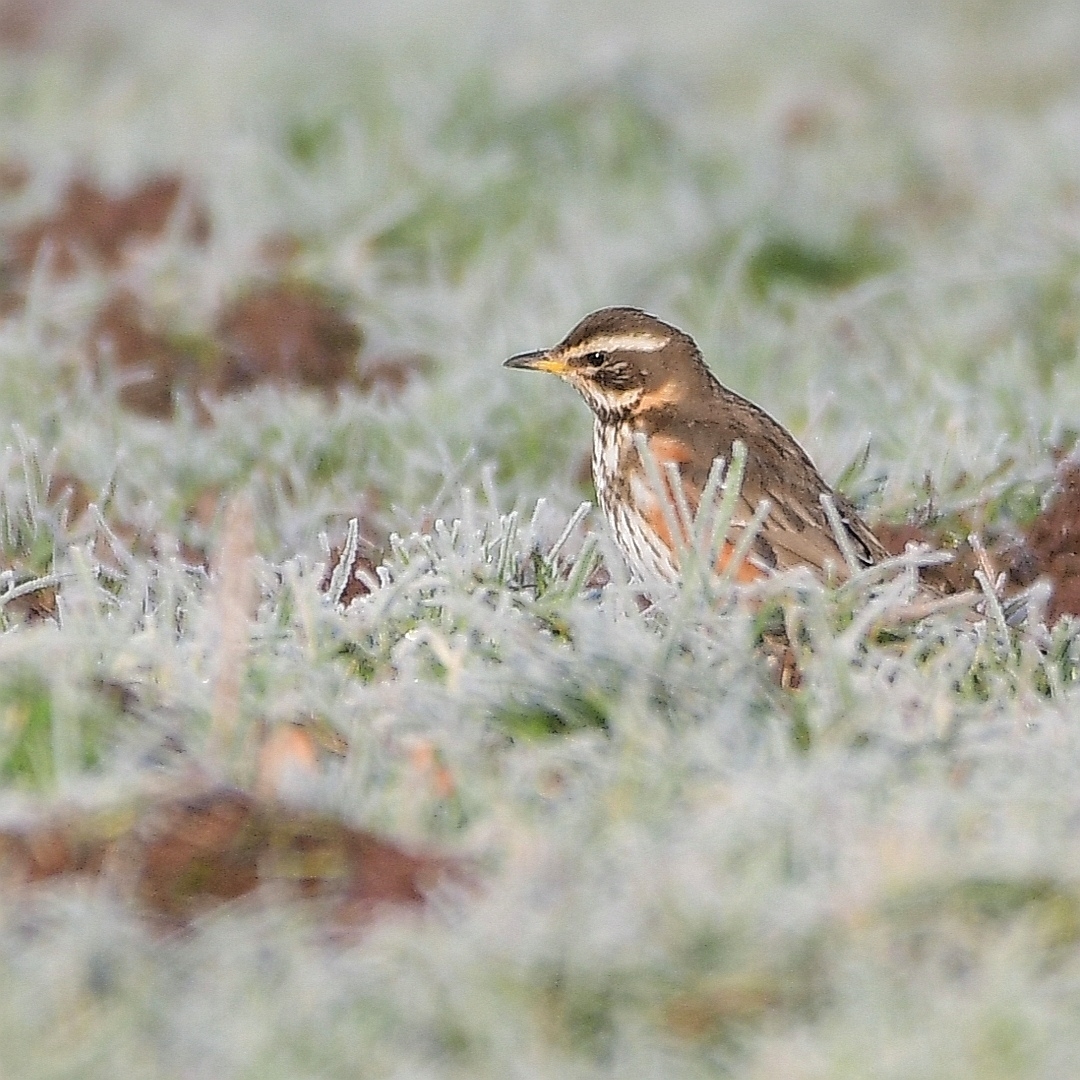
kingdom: Animalia
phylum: Chordata
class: Aves
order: Passeriformes
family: Turdidae
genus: Turdus
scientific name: Turdus iliacus
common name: Redwing
